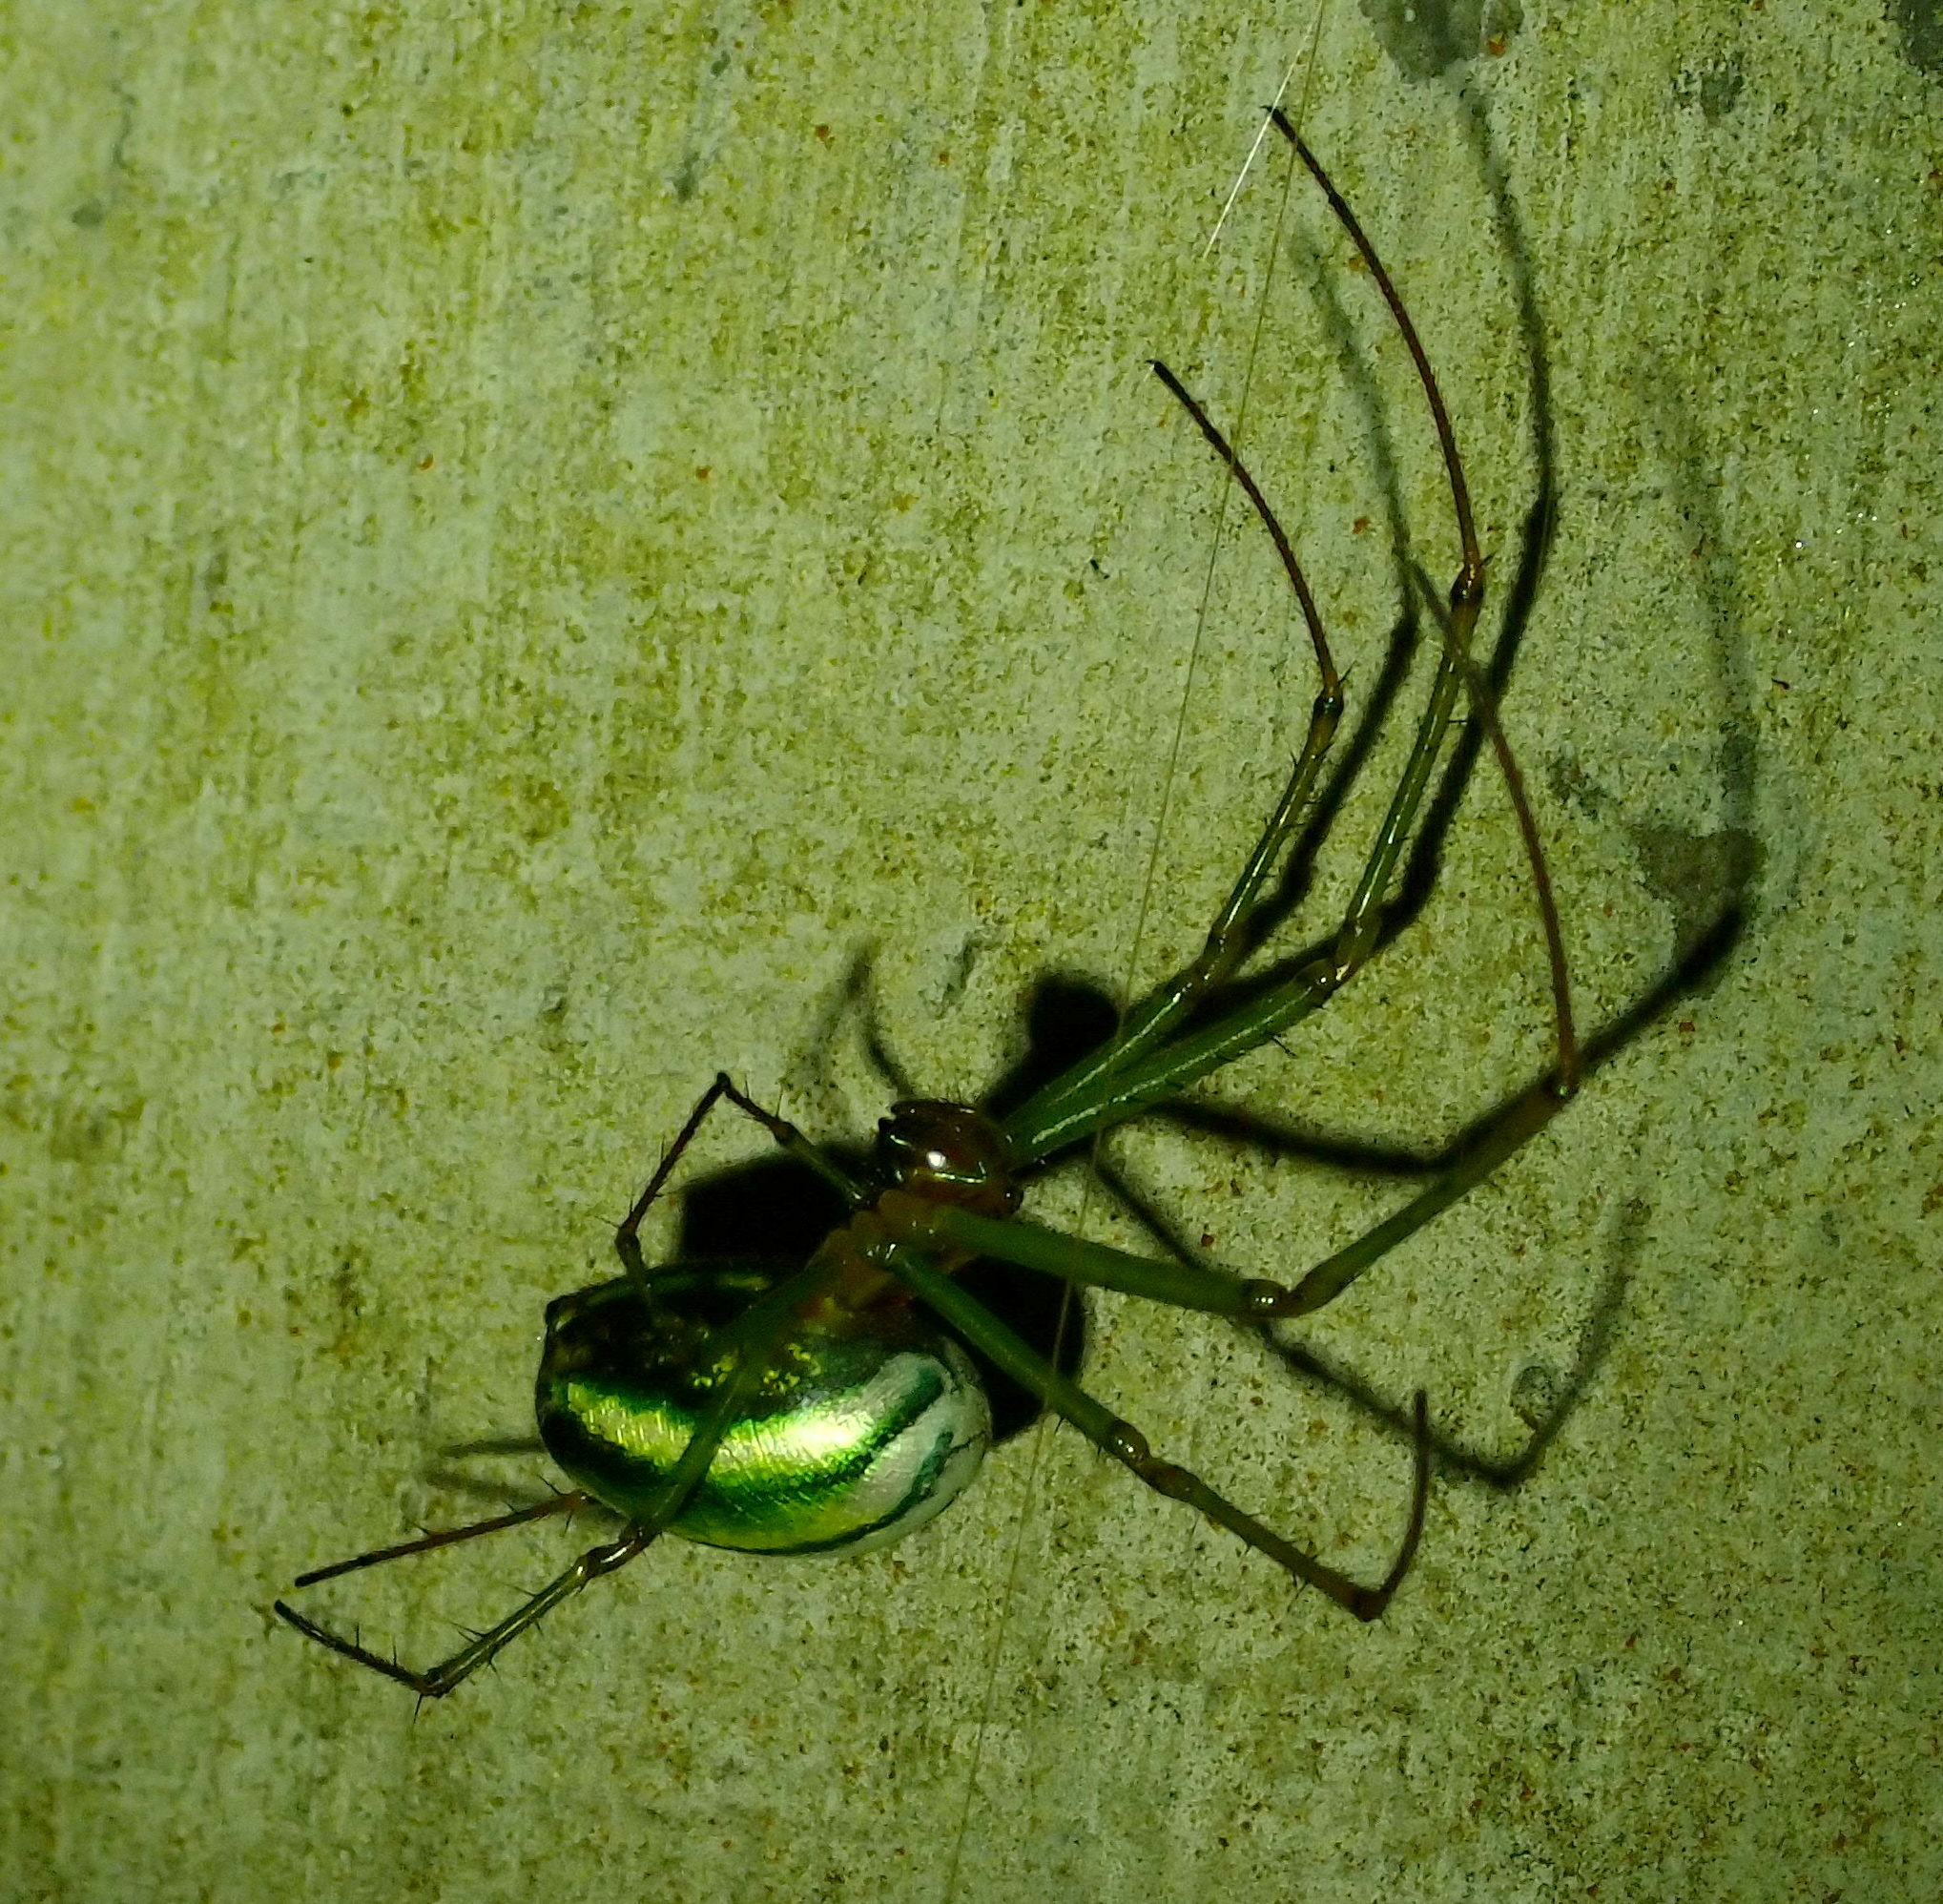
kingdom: Animalia
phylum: Arthropoda
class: Arachnida
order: Araneae
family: Tetragnathidae
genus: Leucauge
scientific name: Leucauge celebesiana
